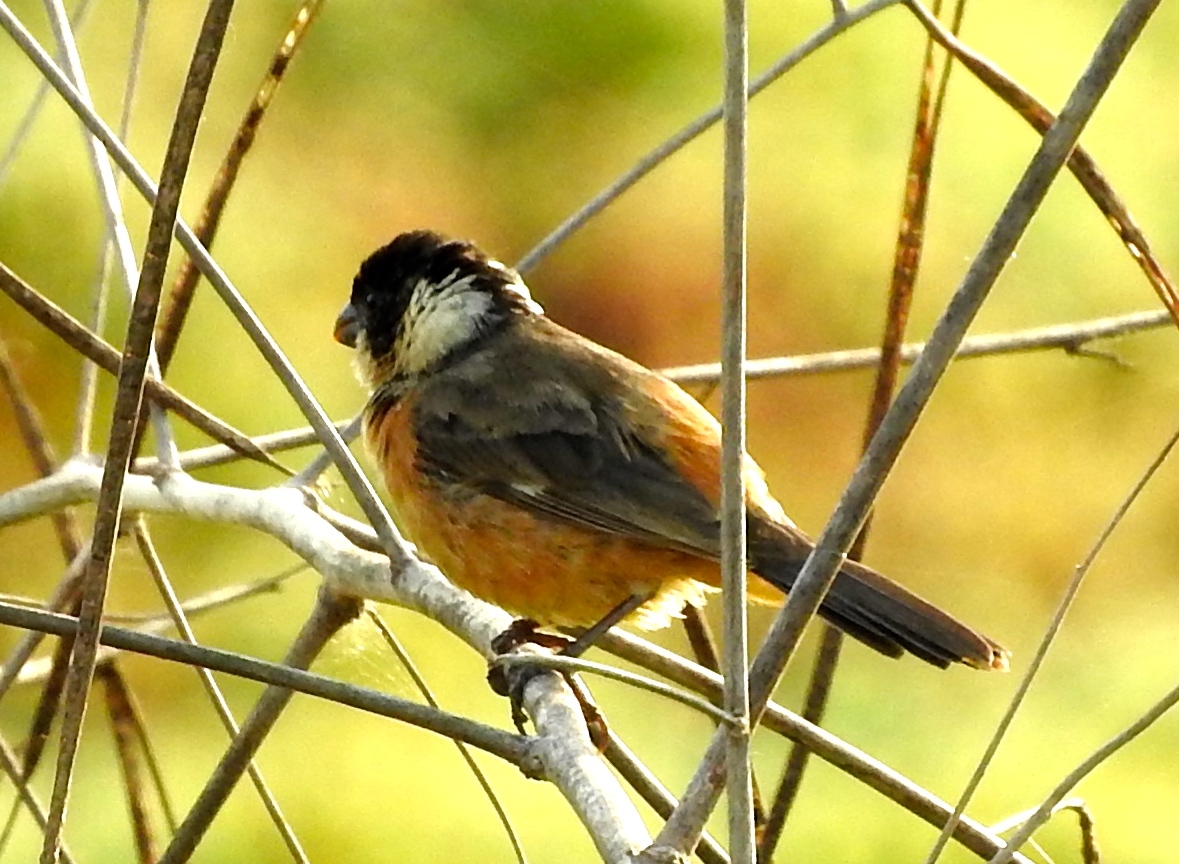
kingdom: Animalia
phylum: Chordata
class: Aves
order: Passeriformes
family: Thraupidae
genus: Sporophila
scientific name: Sporophila torqueola
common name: White-collared seedeater
